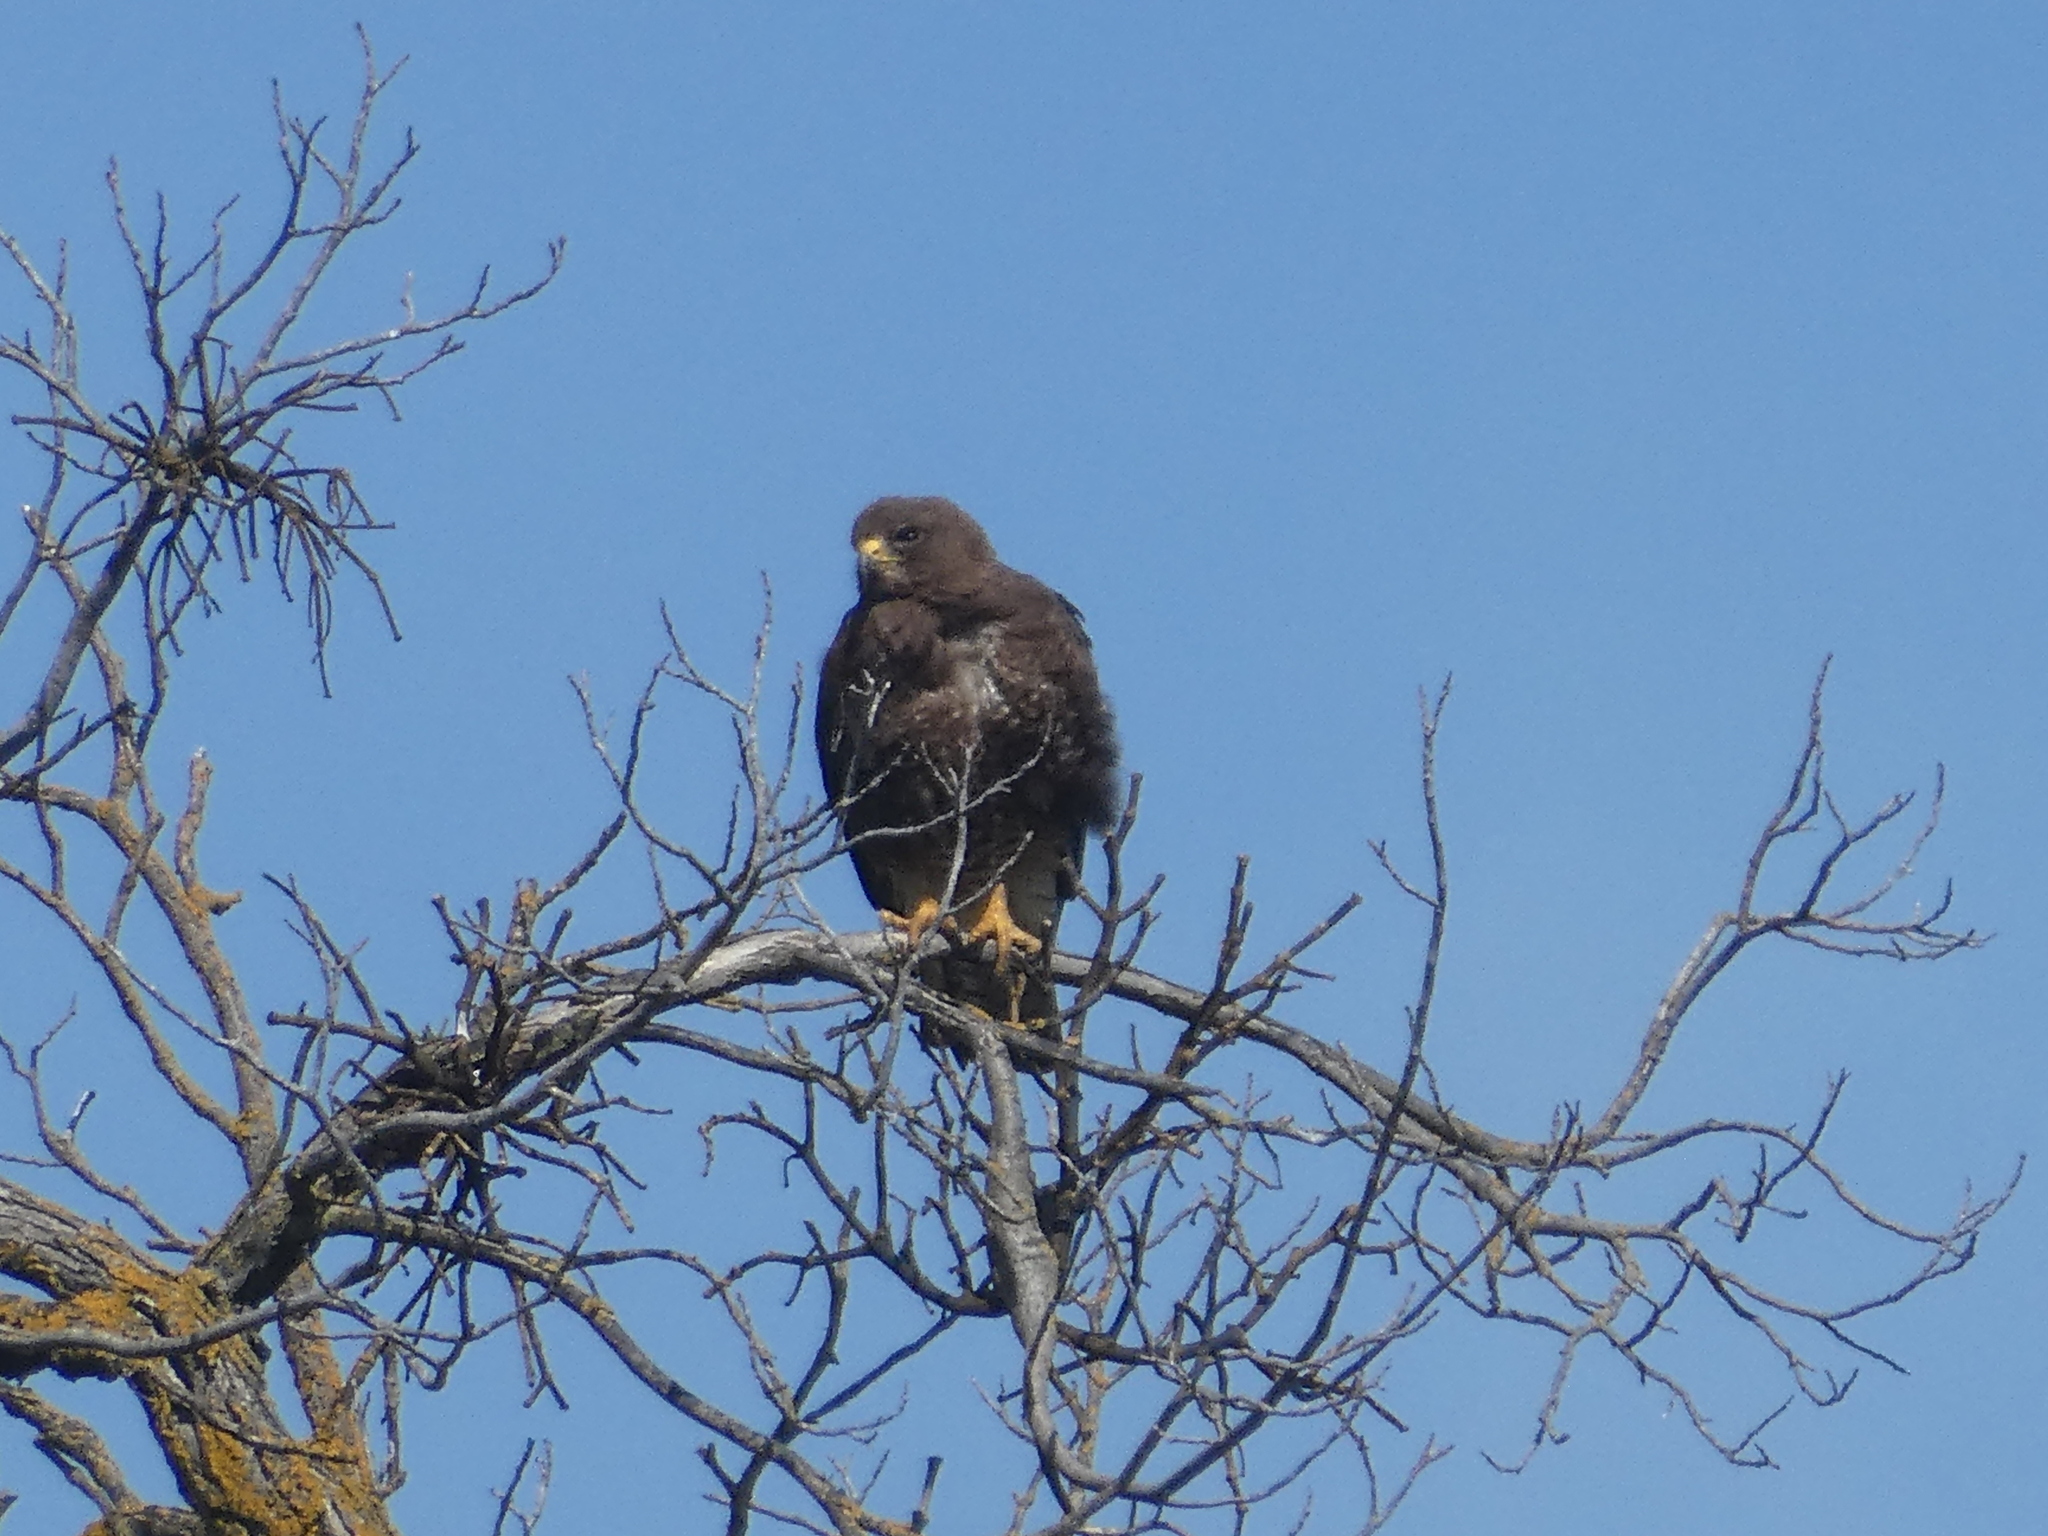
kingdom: Animalia
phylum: Chordata
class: Aves
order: Accipitriformes
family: Accipitridae
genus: Buteo
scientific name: Buteo swainsoni
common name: Swainson's hawk
